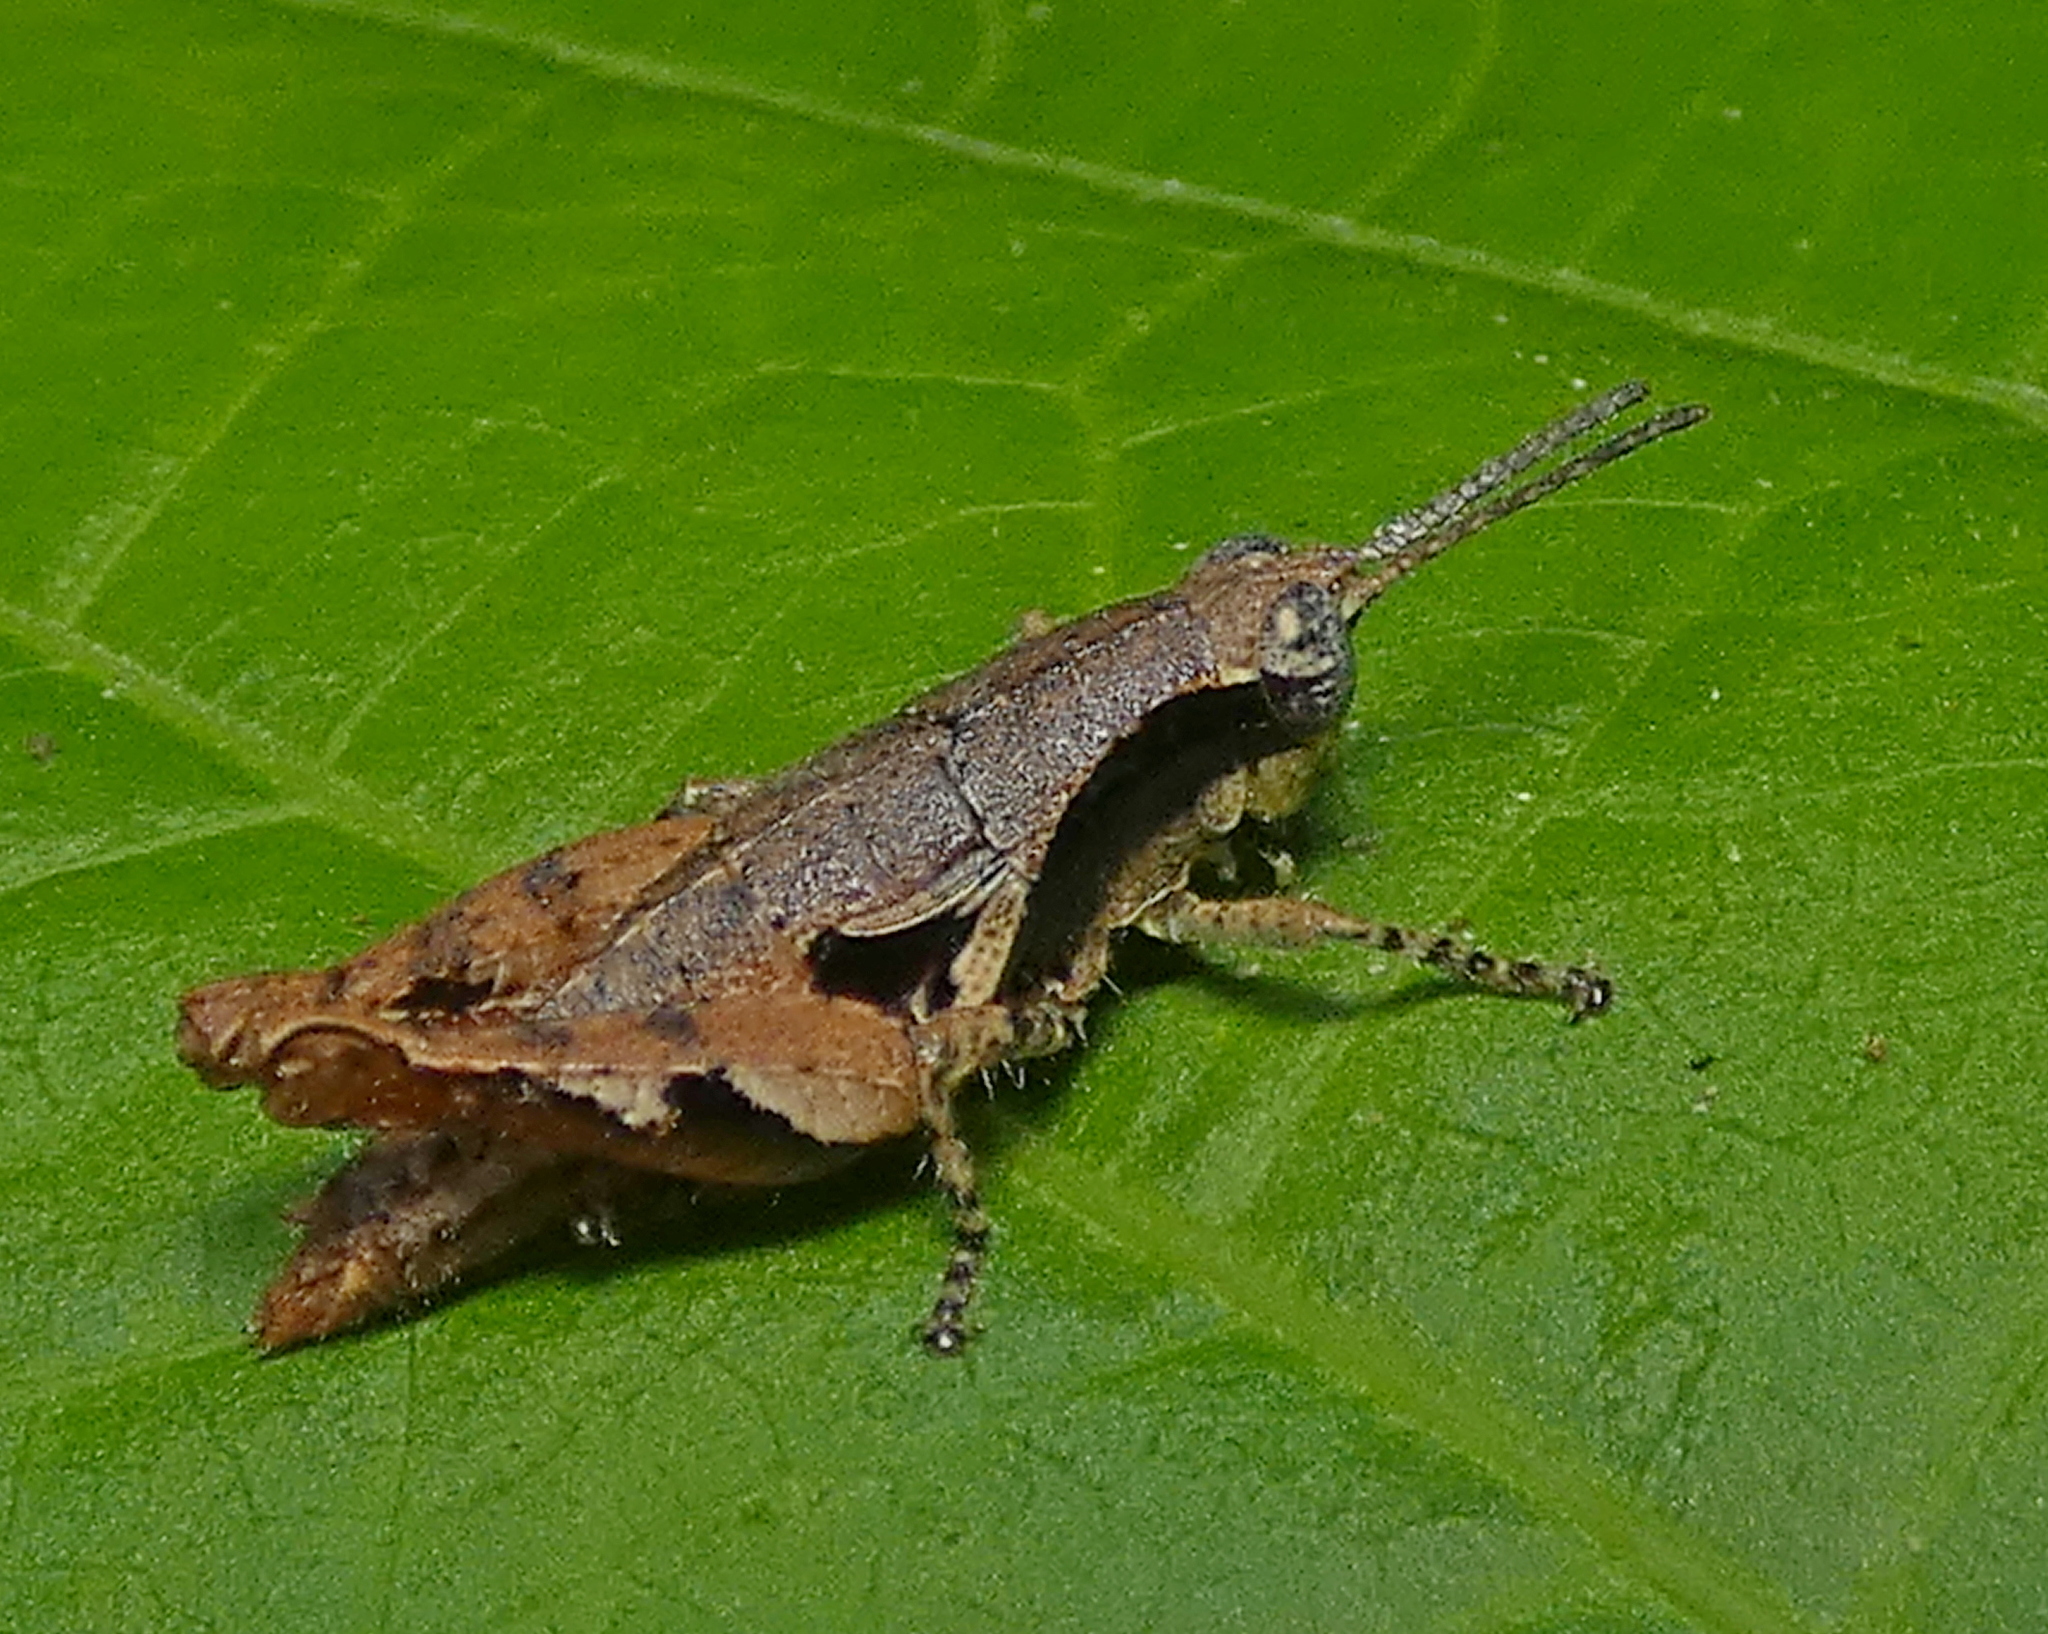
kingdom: Animalia
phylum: Arthropoda
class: Insecta
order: Orthoptera
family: Acrididae
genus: Eujivarus
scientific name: Eujivarus meridionalis
